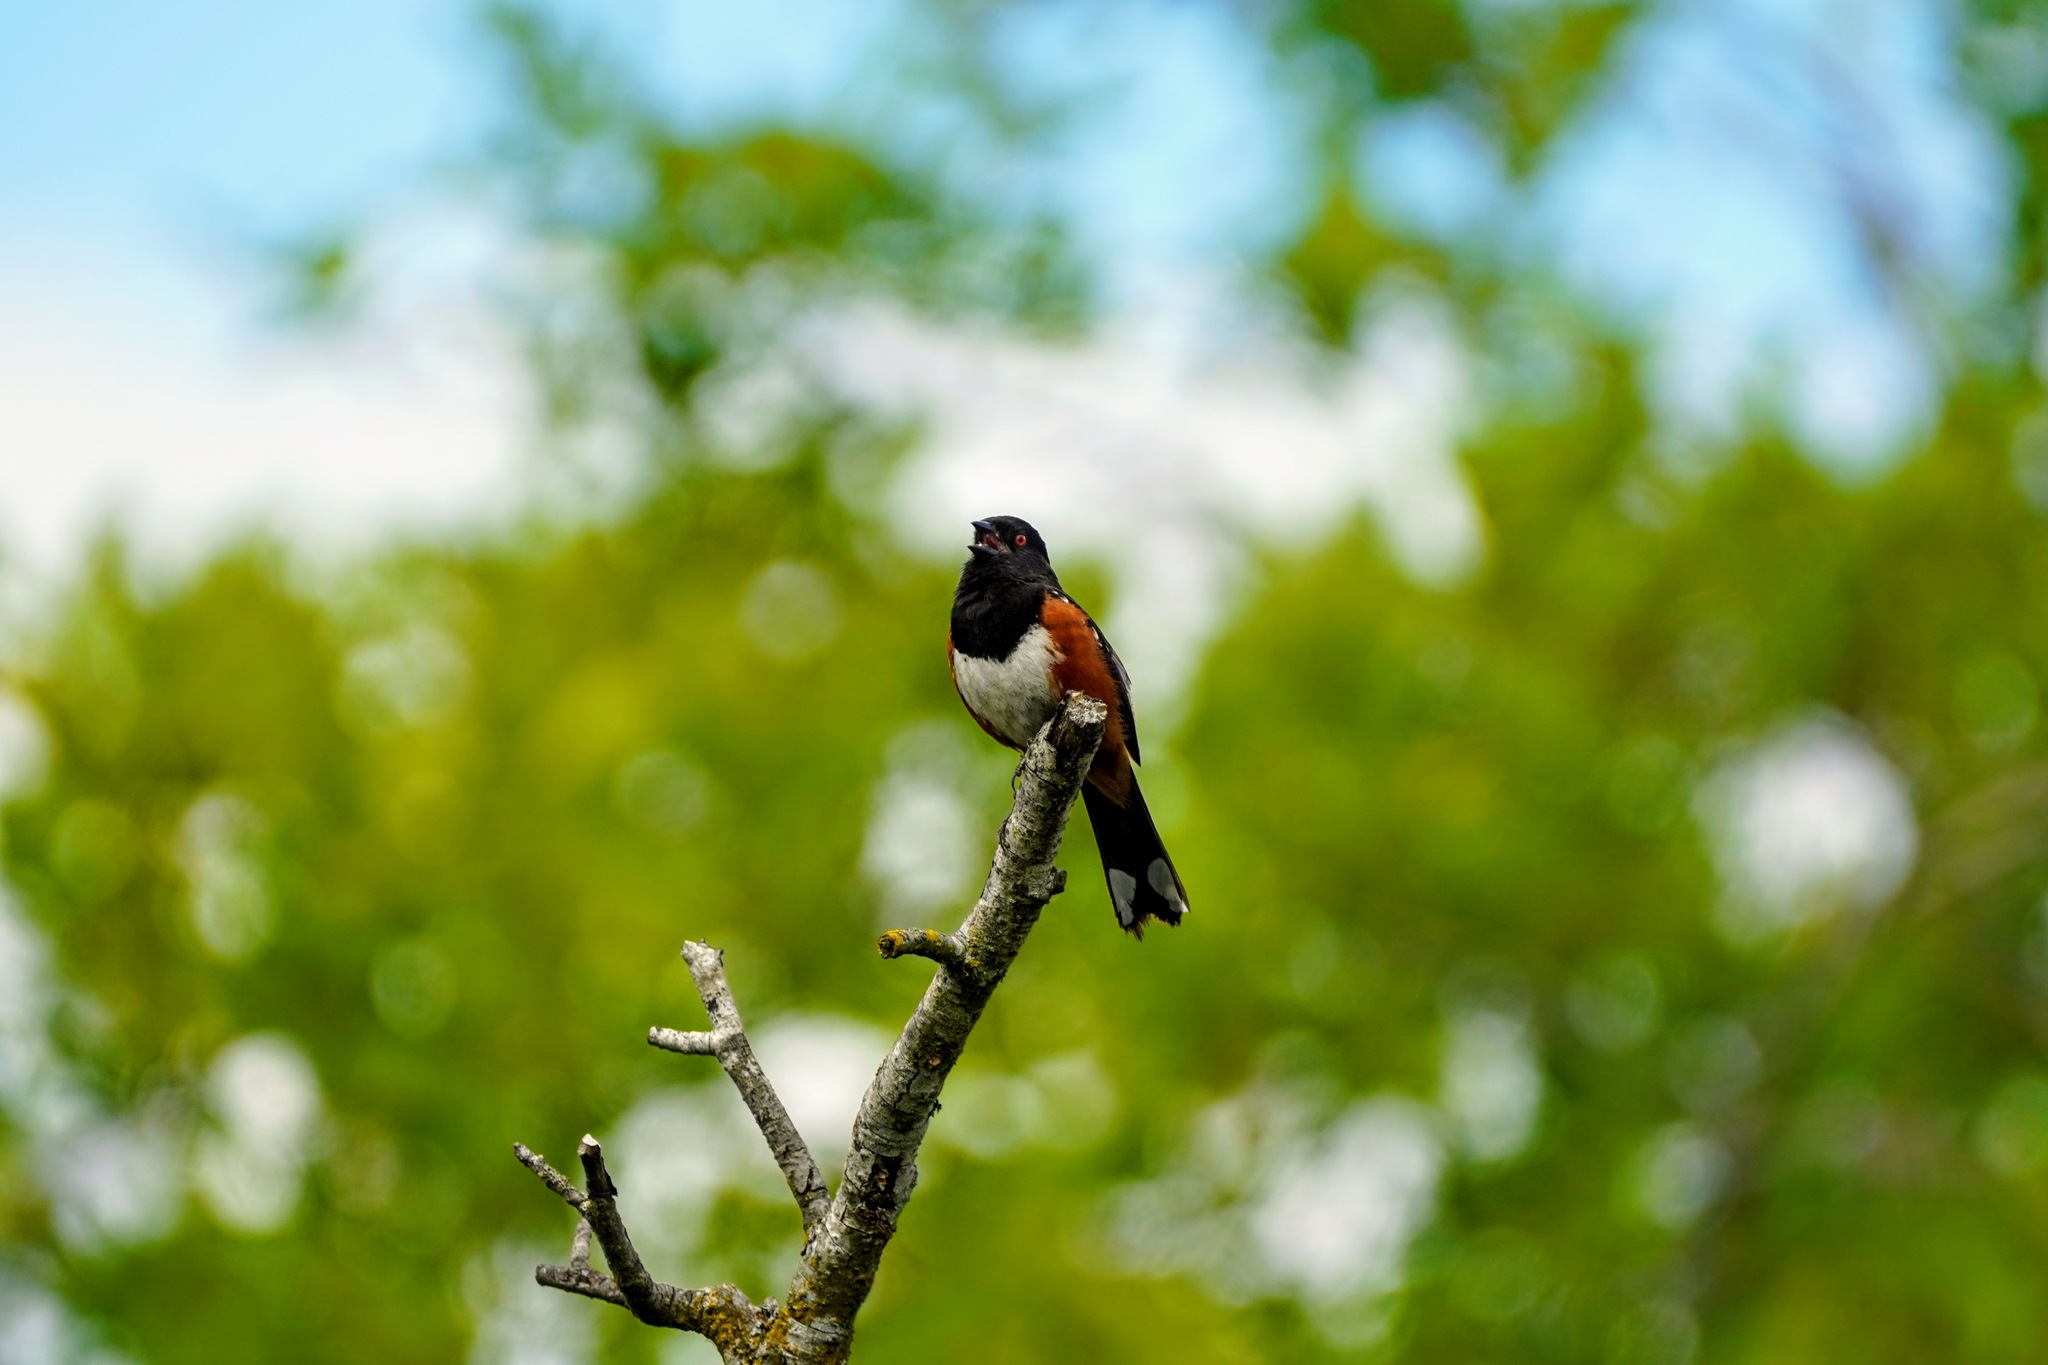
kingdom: Animalia
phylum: Chordata
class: Aves
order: Passeriformes
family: Passerellidae
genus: Pipilo
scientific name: Pipilo maculatus
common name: Spotted towhee
